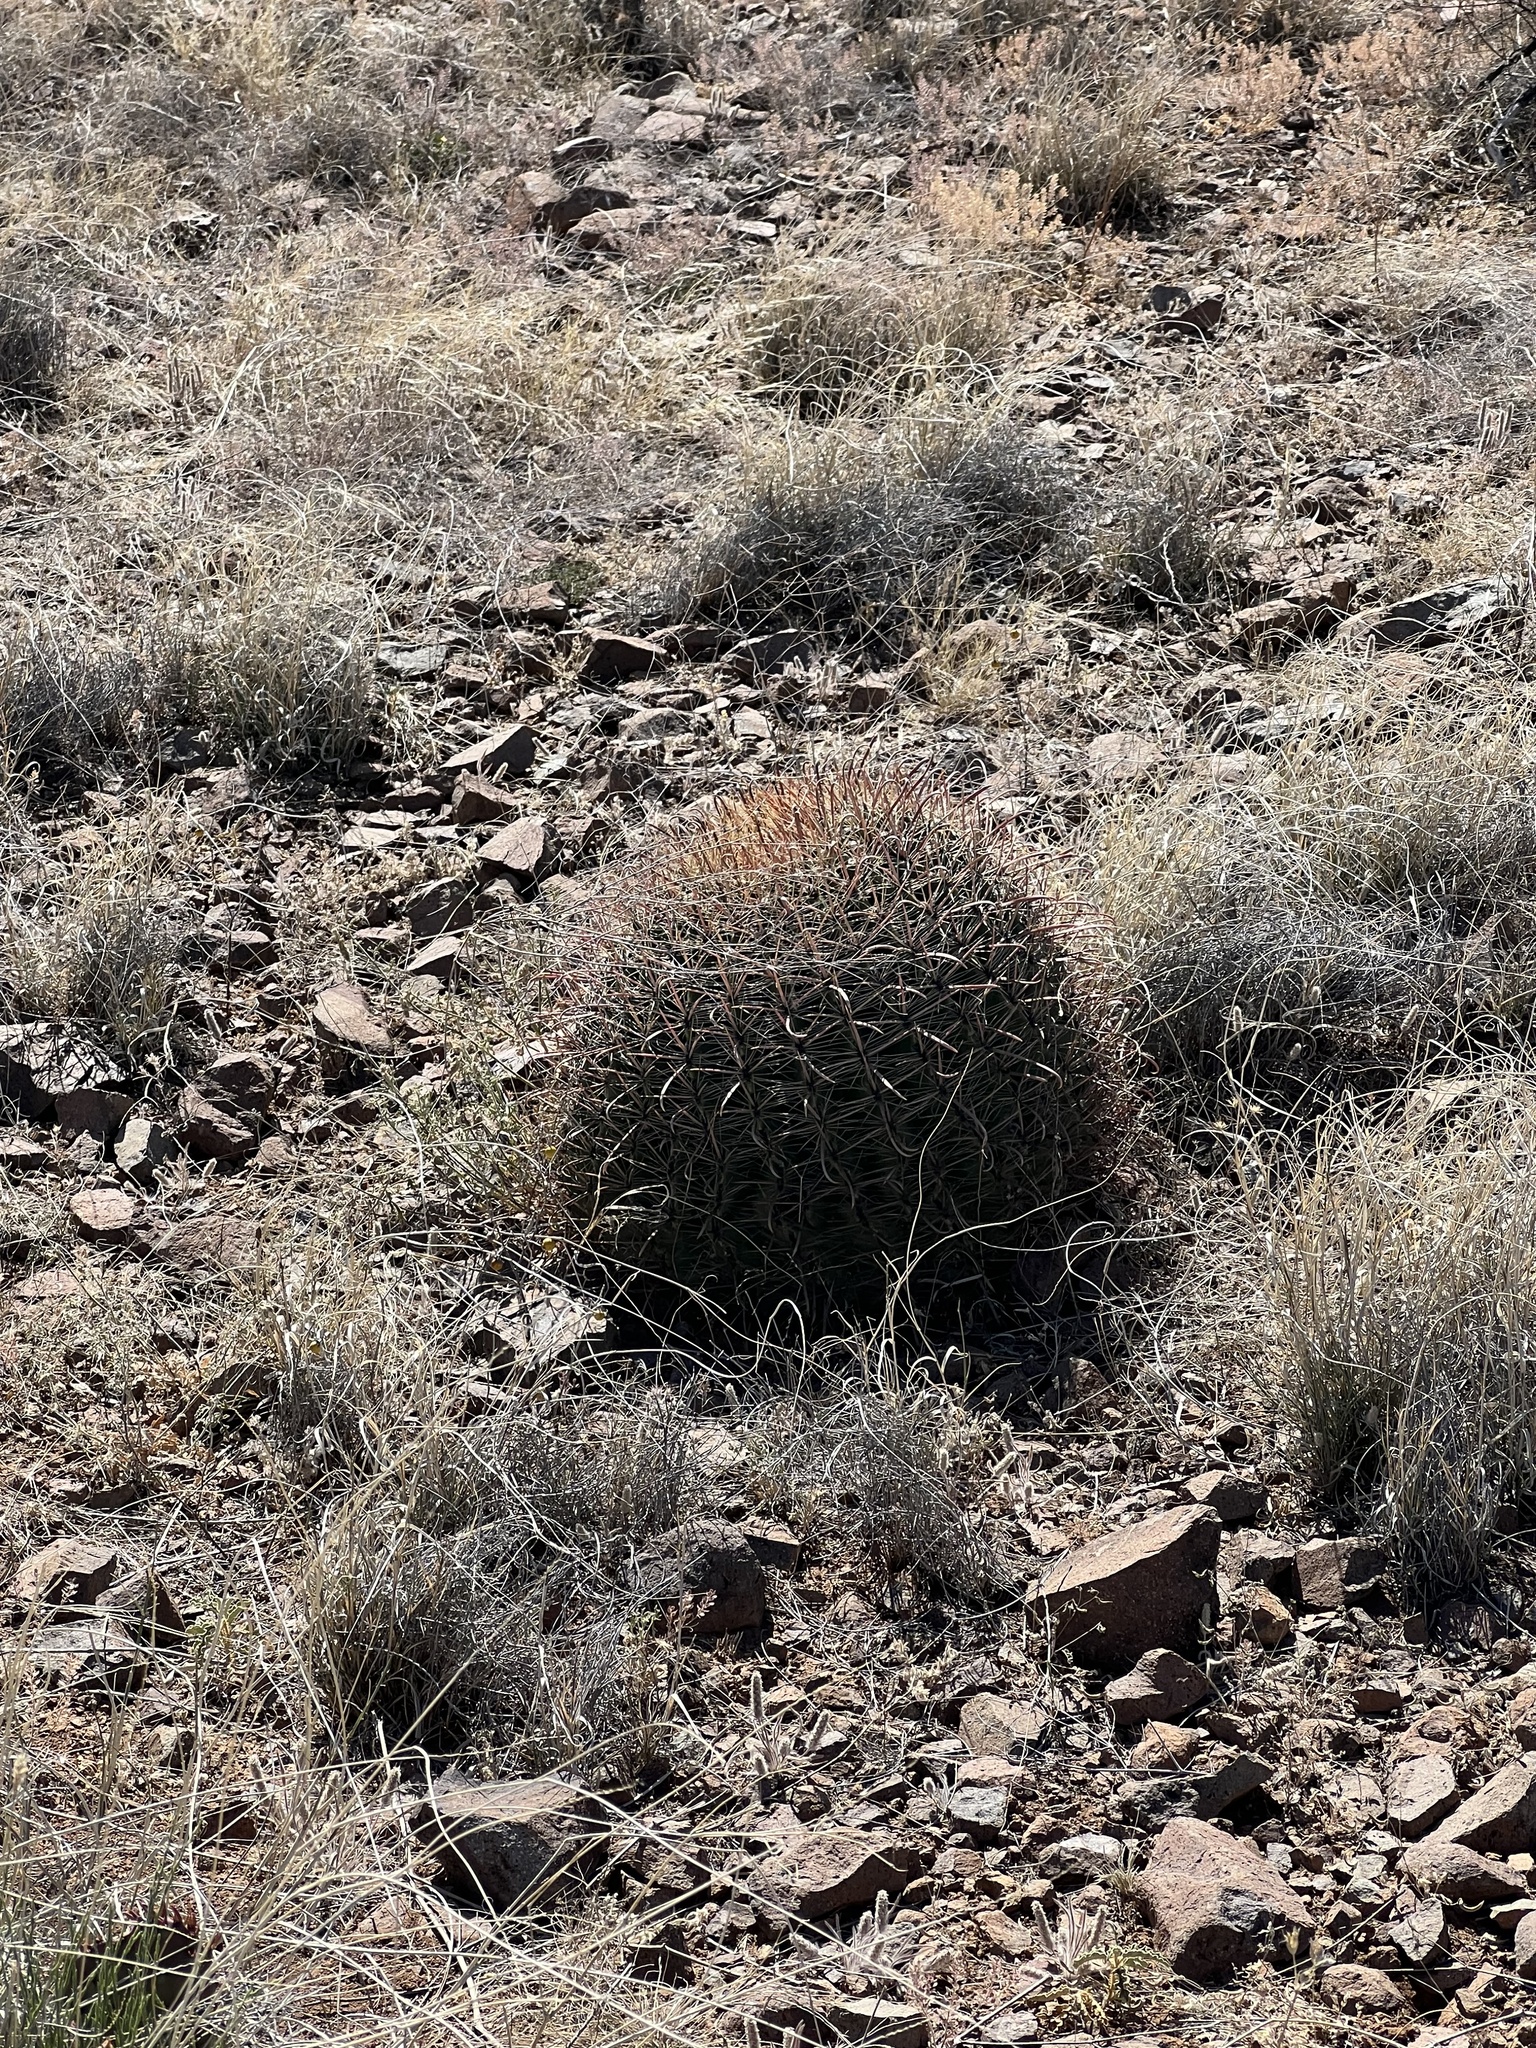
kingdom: Plantae
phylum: Tracheophyta
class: Magnoliopsida
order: Caryophyllales
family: Cactaceae
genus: Ferocactus
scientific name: Ferocactus wislizeni
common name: Candy barrel cactus
